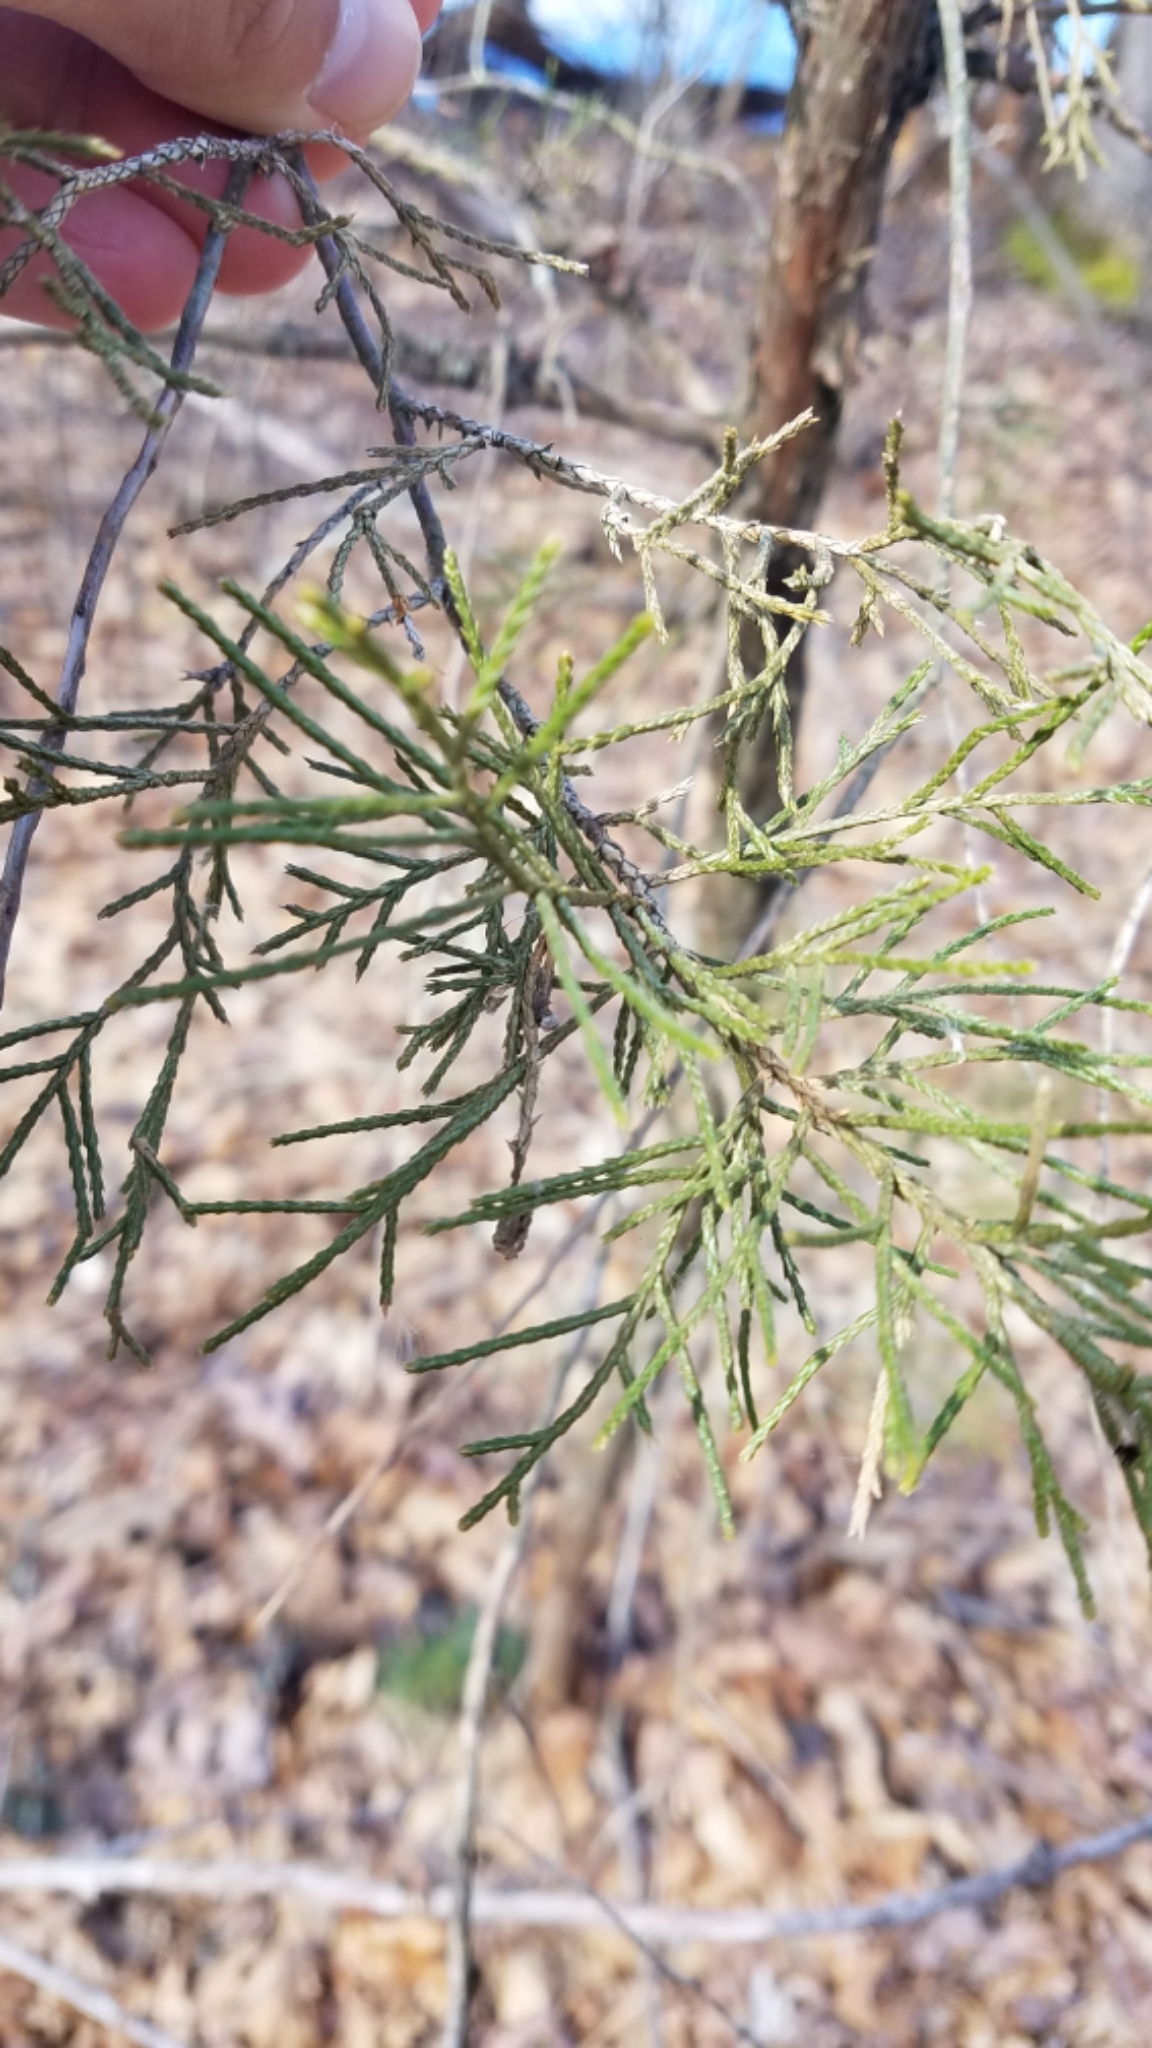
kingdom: Plantae
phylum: Tracheophyta
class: Pinopsida
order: Pinales
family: Cupressaceae
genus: Juniperus
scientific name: Juniperus virginiana
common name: Red juniper
